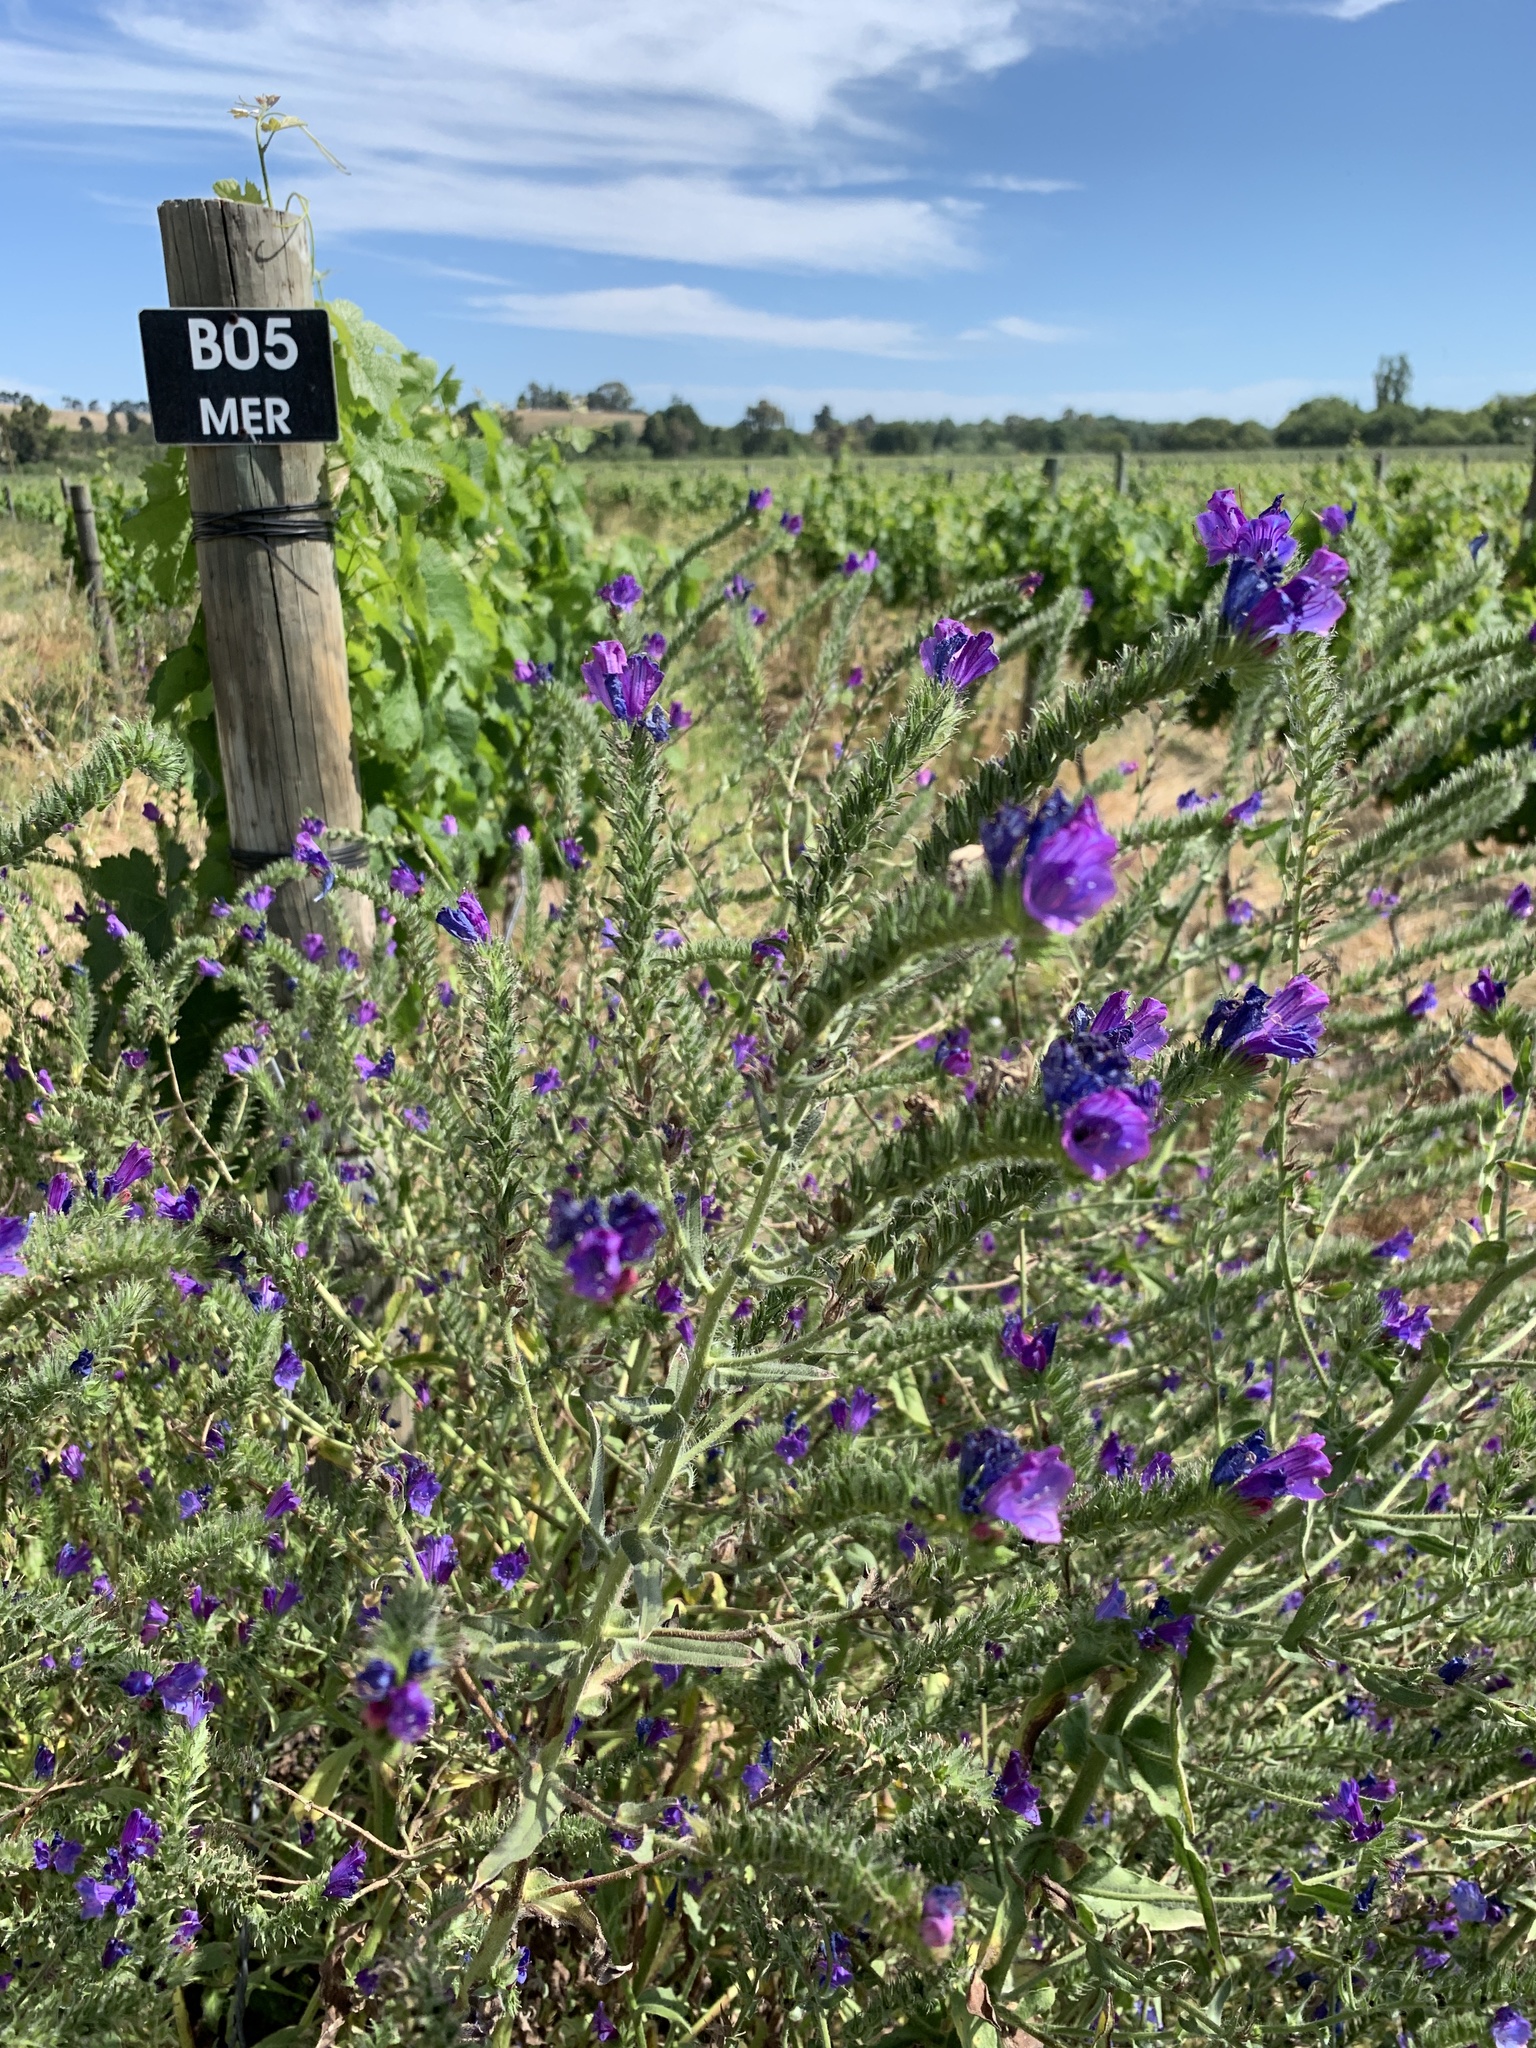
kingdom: Plantae
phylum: Tracheophyta
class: Magnoliopsida
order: Boraginales
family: Boraginaceae
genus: Echium
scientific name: Echium plantagineum
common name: Purple viper's-bugloss
